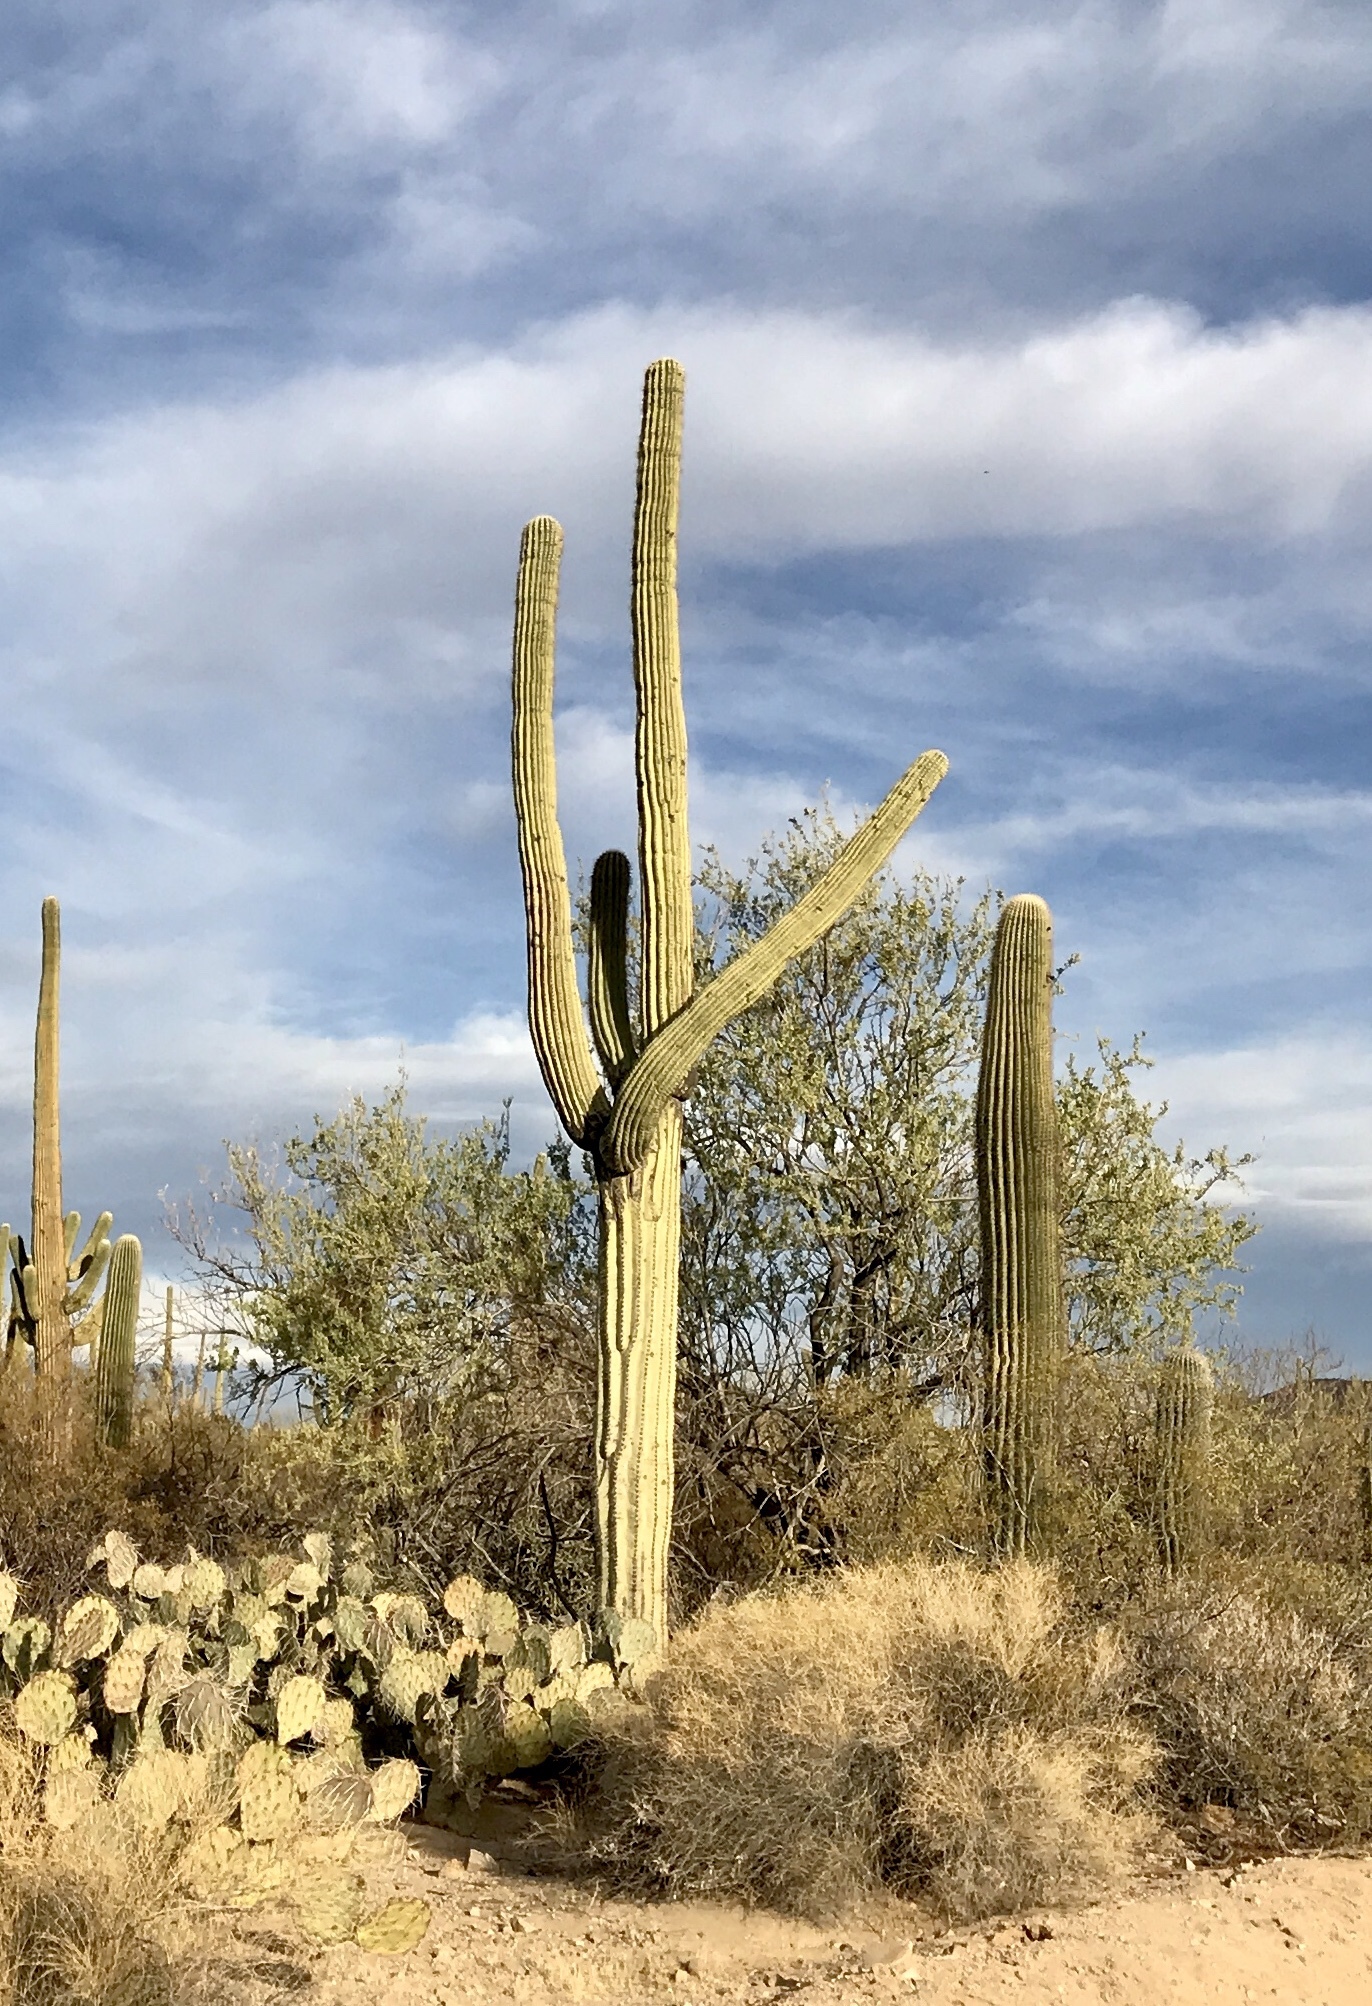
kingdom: Plantae
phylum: Tracheophyta
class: Magnoliopsida
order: Caryophyllales
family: Cactaceae
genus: Carnegiea
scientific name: Carnegiea gigantea
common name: Saguaro
